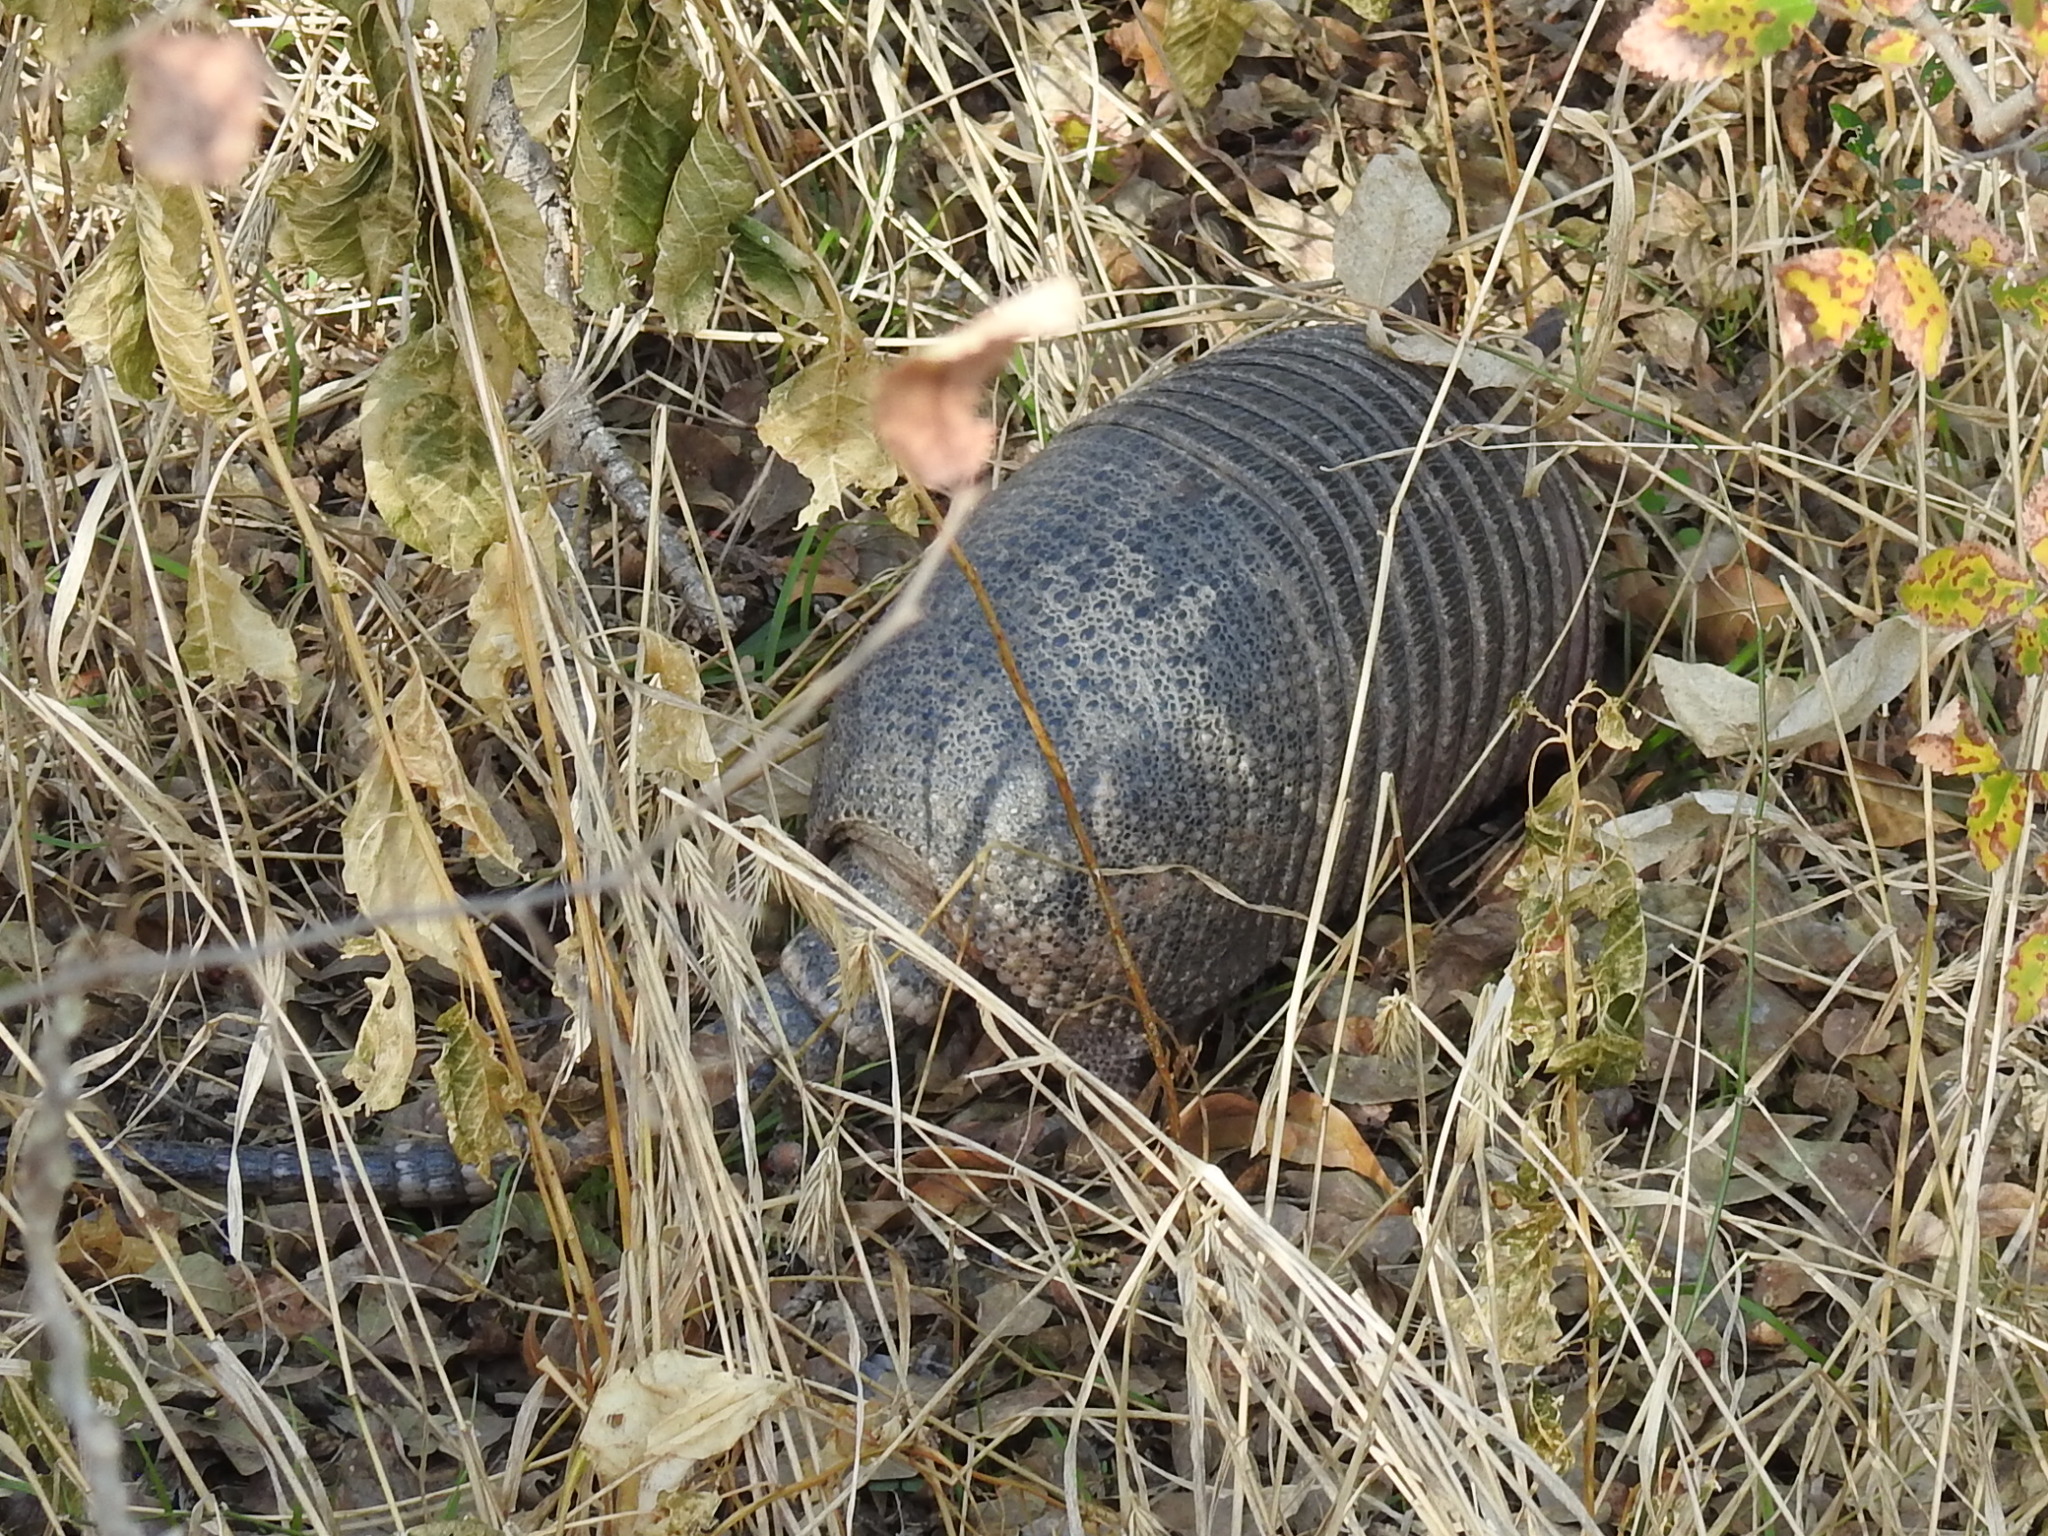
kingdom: Animalia
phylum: Chordata
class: Mammalia
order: Cingulata
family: Dasypodidae
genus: Dasypus
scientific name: Dasypus novemcinctus
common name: Nine-banded armadillo
